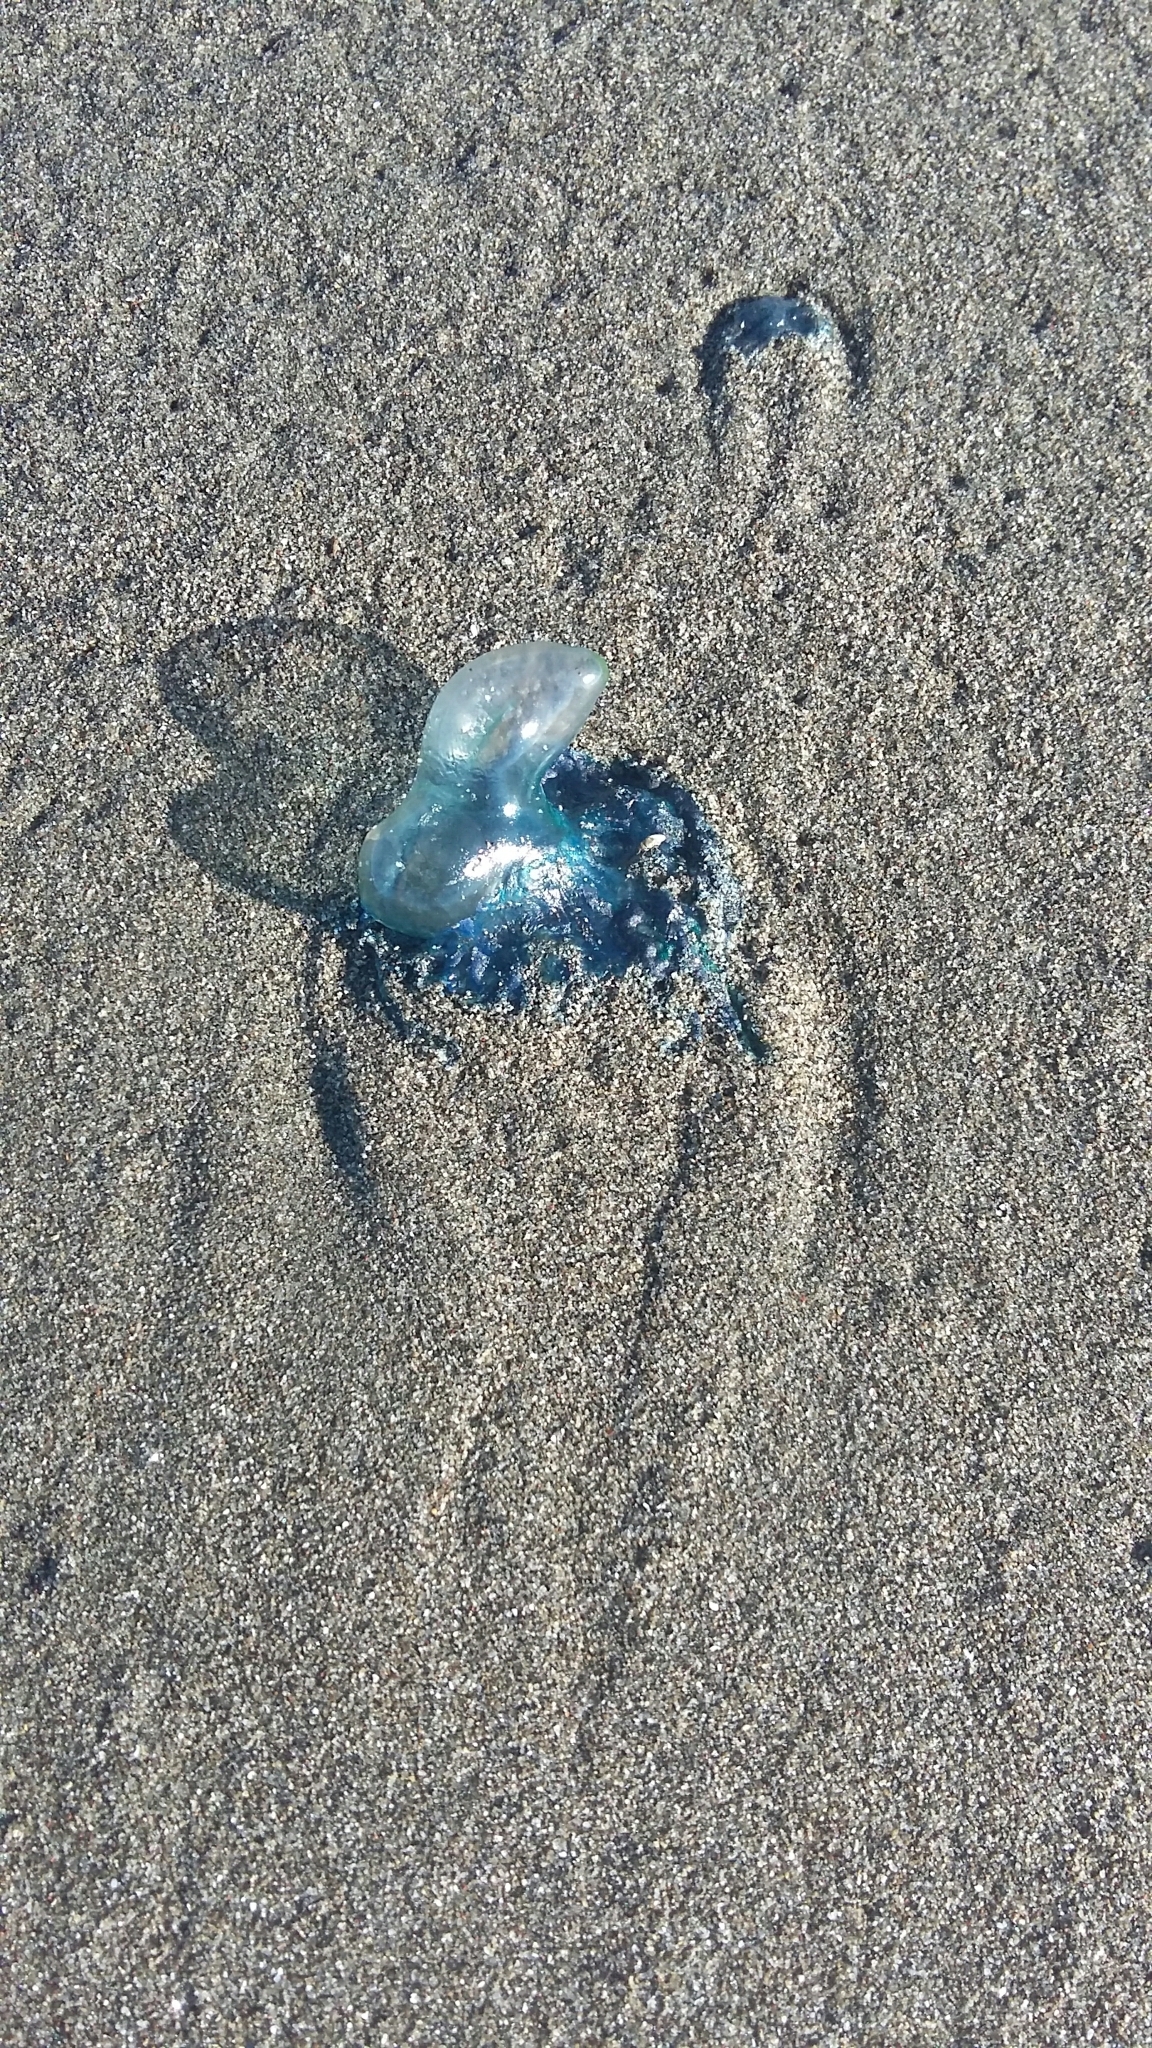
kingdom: Animalia
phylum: Cnidaria
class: Hydrozoa
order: Siphonophorae
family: Physaliidae
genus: Physalia
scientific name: Physalia physalis
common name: Portuguese man-of-war
